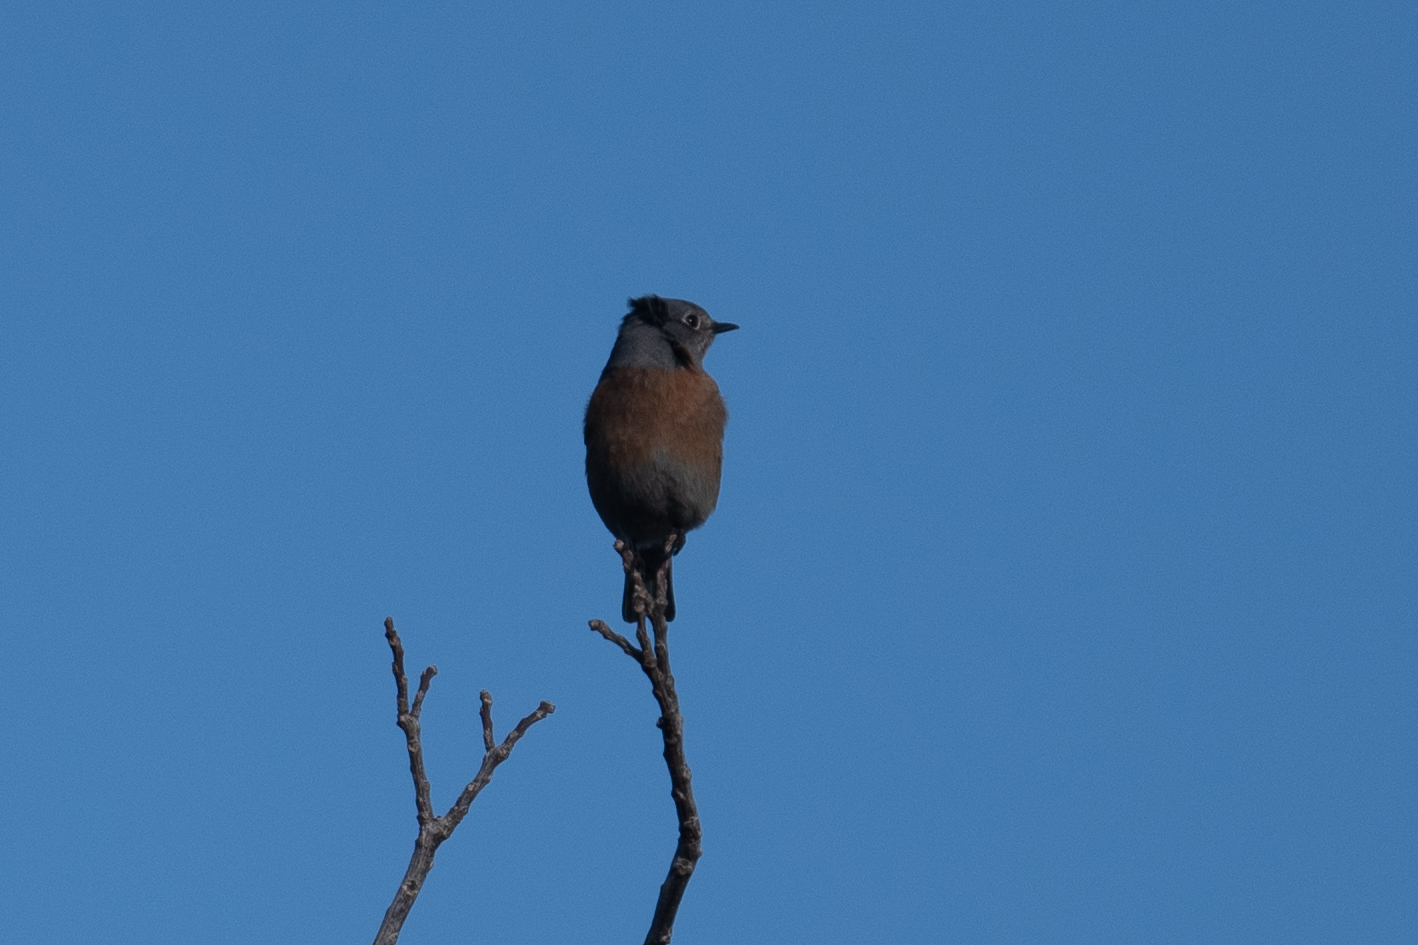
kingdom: Animalia
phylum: Chordata
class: Aves
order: Passeriformes
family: Turdidae
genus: Sialia
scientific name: Sialia mexicana
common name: Western bluebird
